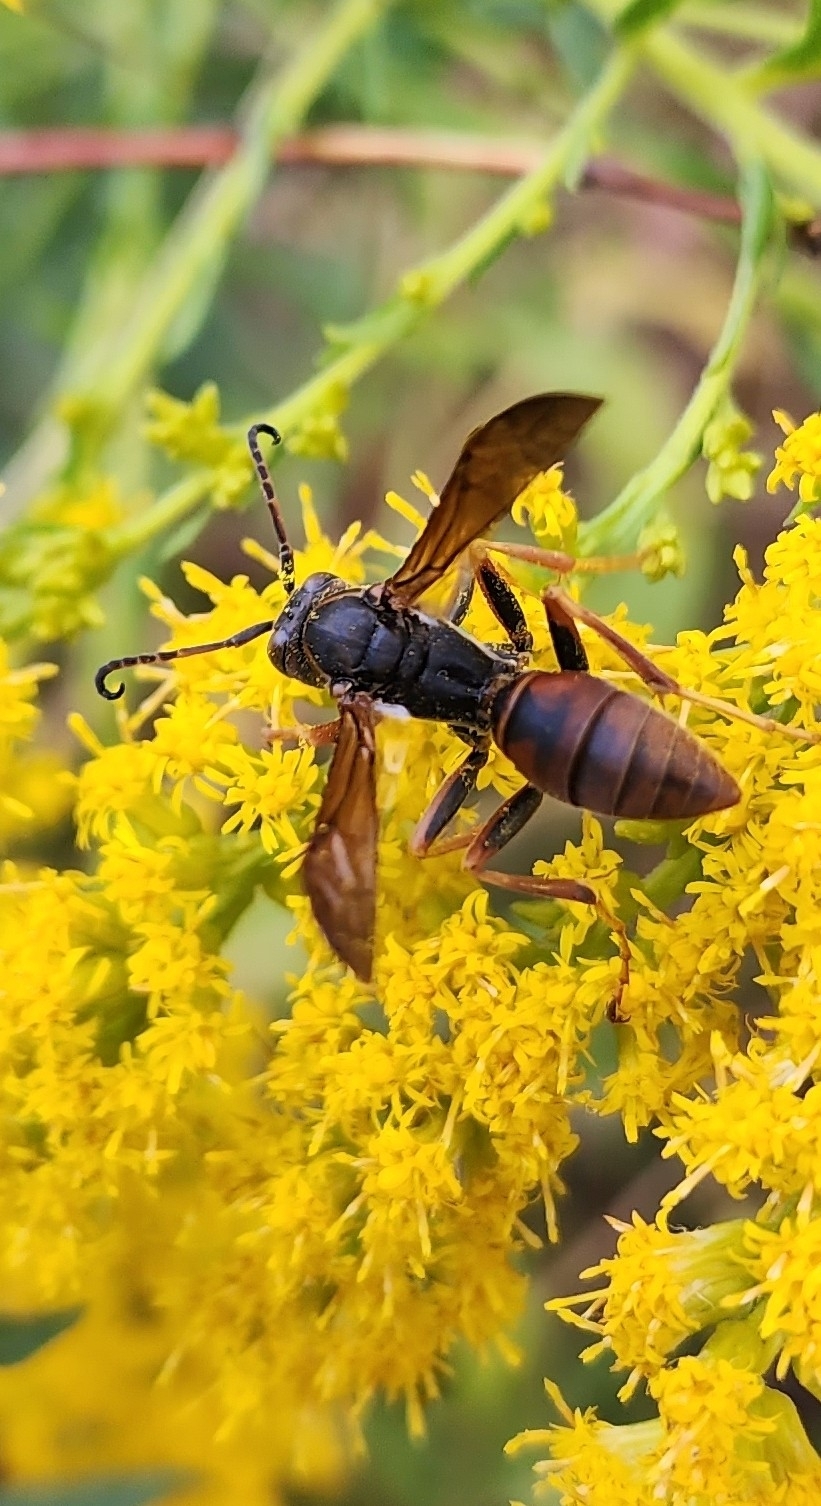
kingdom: Animalia
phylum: Arthropoda
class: Insecta
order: Hymenoptera
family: Eumenidae
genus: Polistes
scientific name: Polistes fuscatus
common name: Dark paper wasp
